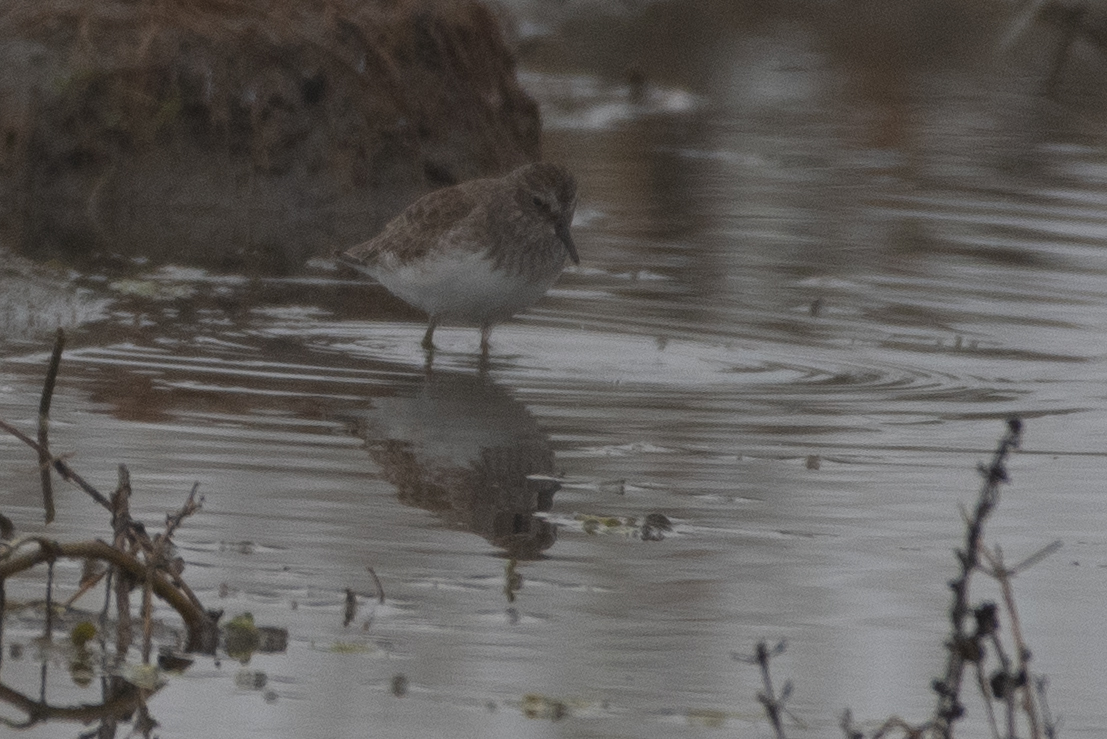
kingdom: Animalia
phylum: Chordata
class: Aves
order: Charadriiformes
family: Scolopacidae
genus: Calidris
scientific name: Calidris minutilla
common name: Least sandpiper
